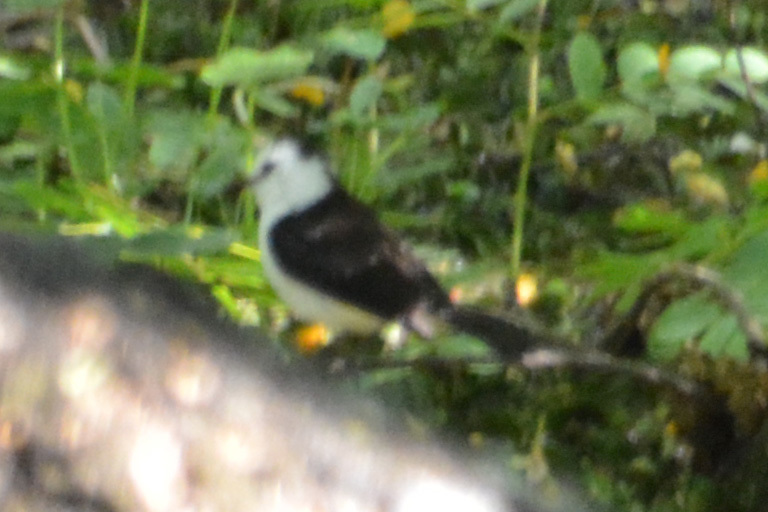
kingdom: Animalia
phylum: Chordata
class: Aves
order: Passeriformes
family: Tyrannidae
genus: Fluvicola
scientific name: Fluvicola pica
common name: Pied water-tyrant
